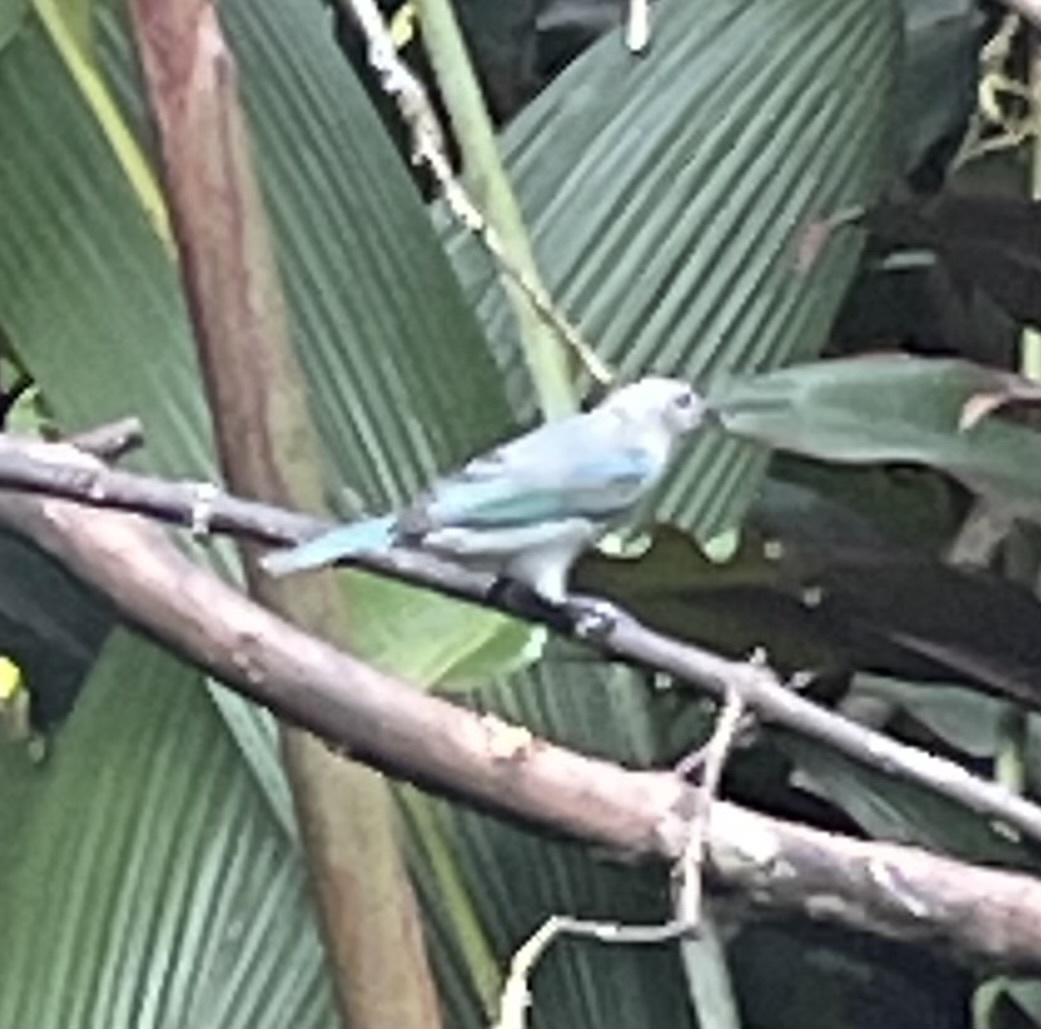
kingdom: Animalia
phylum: Chordata
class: Aves
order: Passeriformes
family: Thraupidae
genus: Thraupis
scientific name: Thraupis episcopus
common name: Blue-grey tanager
